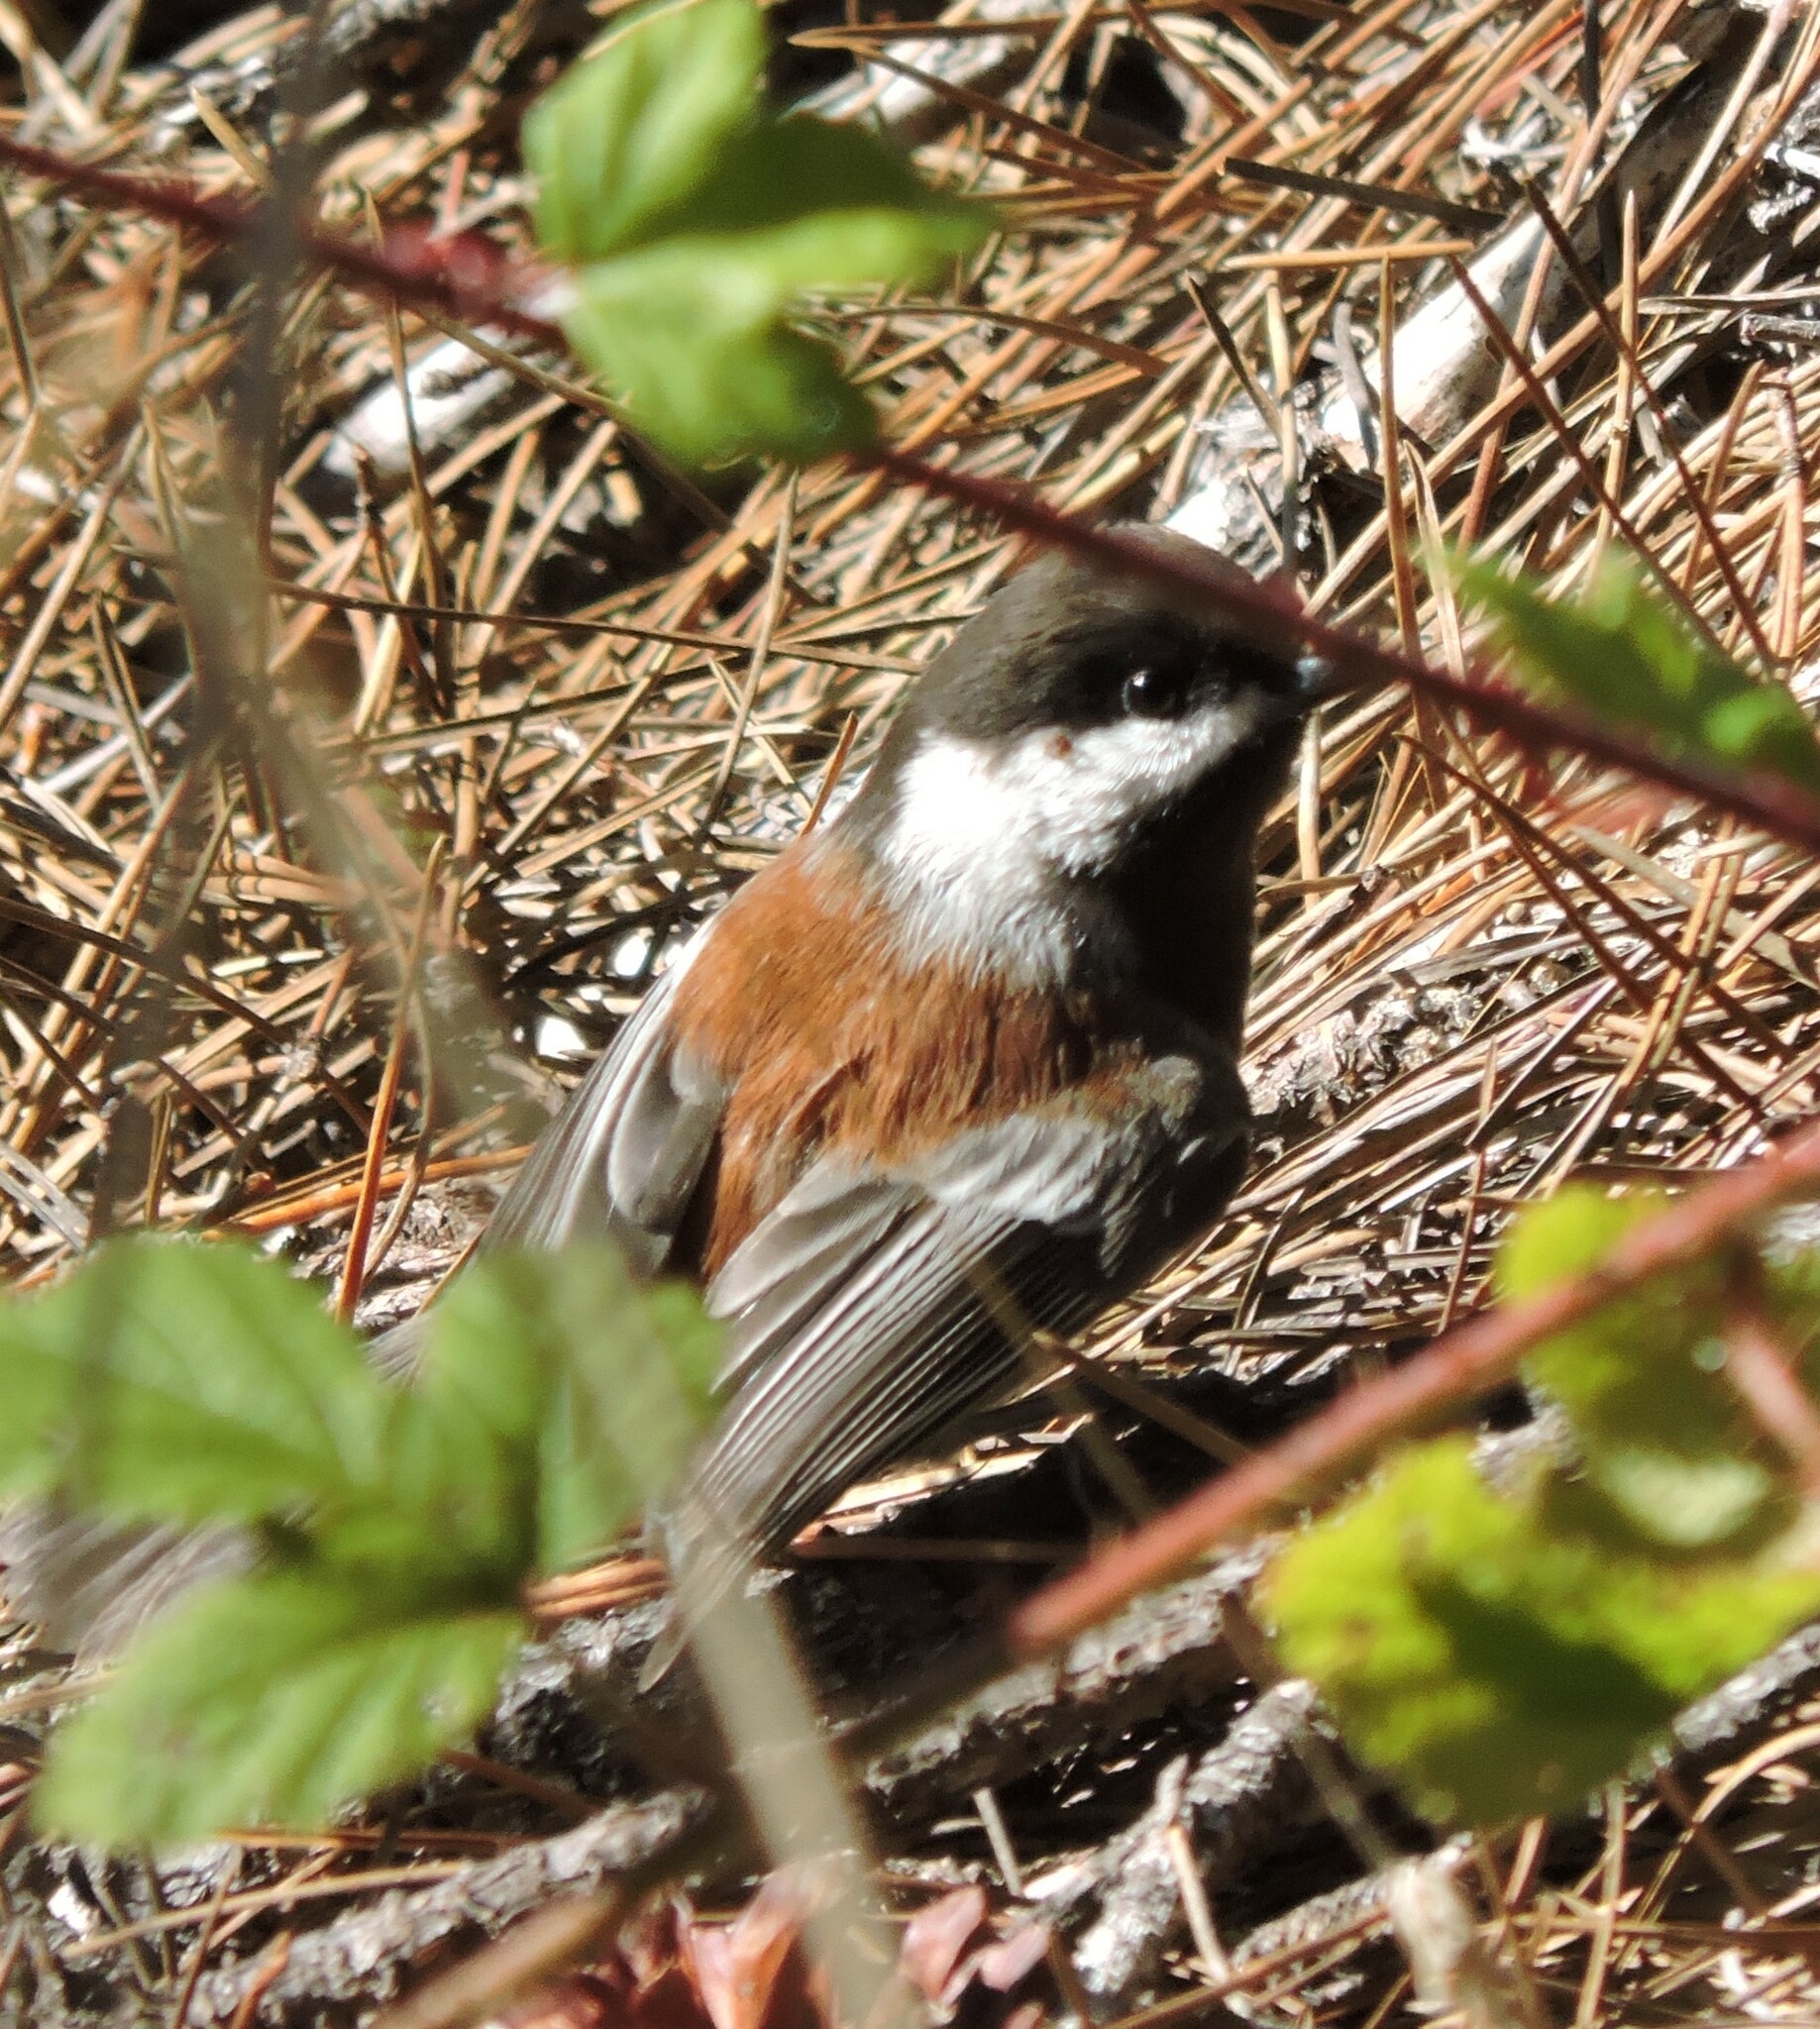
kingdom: Animalia
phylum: Chordata
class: Aves
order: Passeriformes
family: Paridae
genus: Poecile
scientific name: Poecile rufescens
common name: Chestnut-backed chickadee
